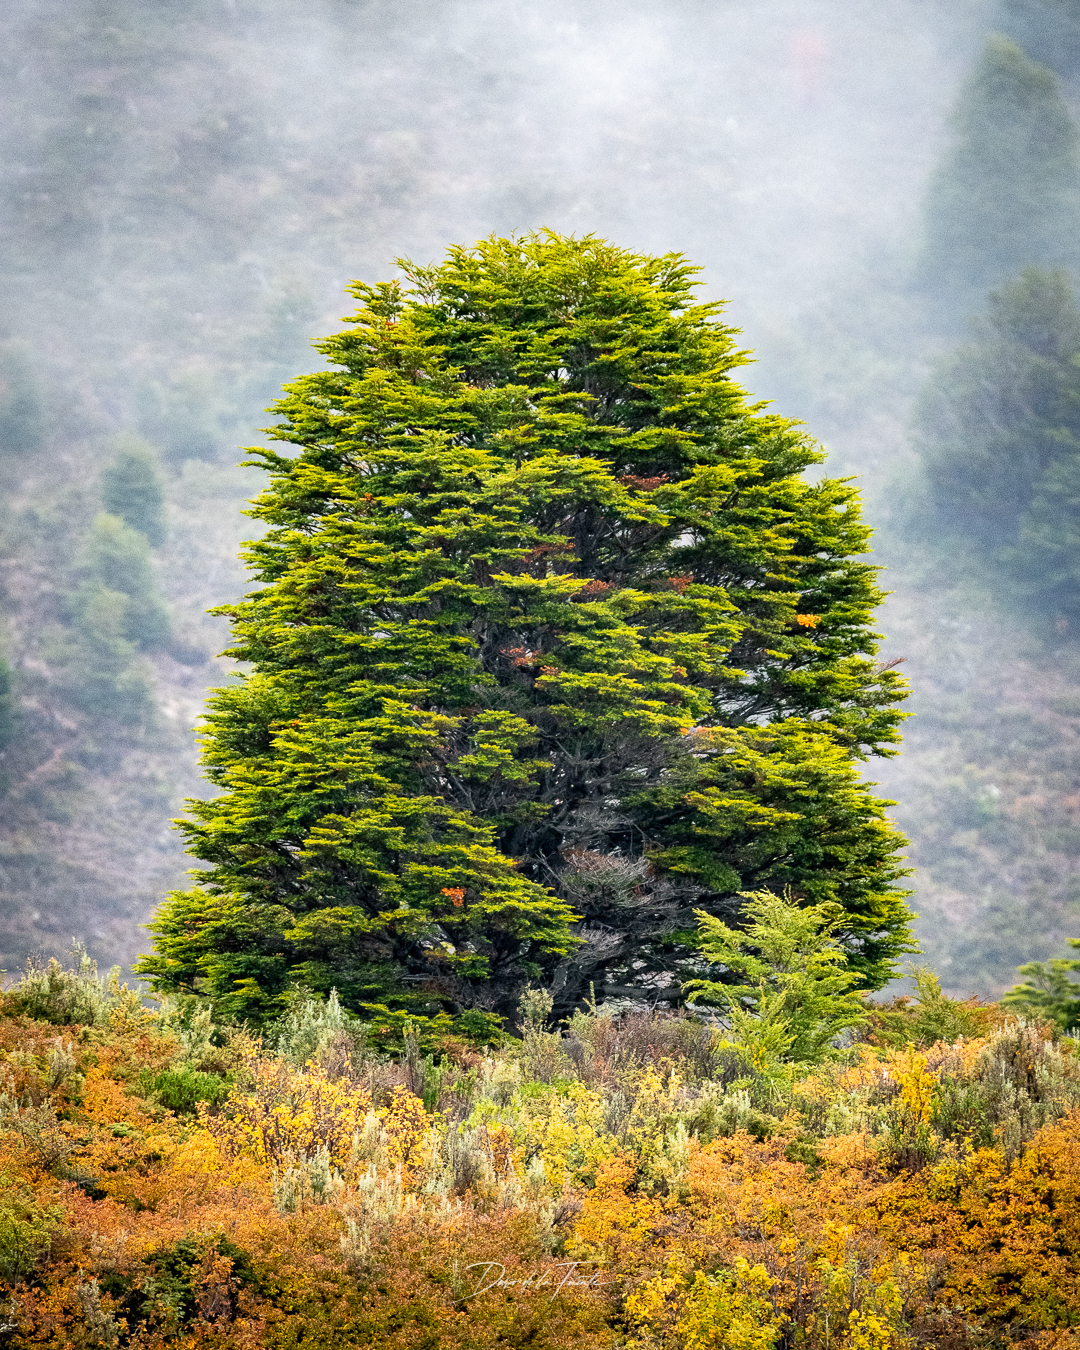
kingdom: Plantae
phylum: Tracheophyta
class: Magnoliopsida
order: Fagales
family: Nothofagaceae
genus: Nothofagus
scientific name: Nothofagus pumilio
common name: Lenga beech
